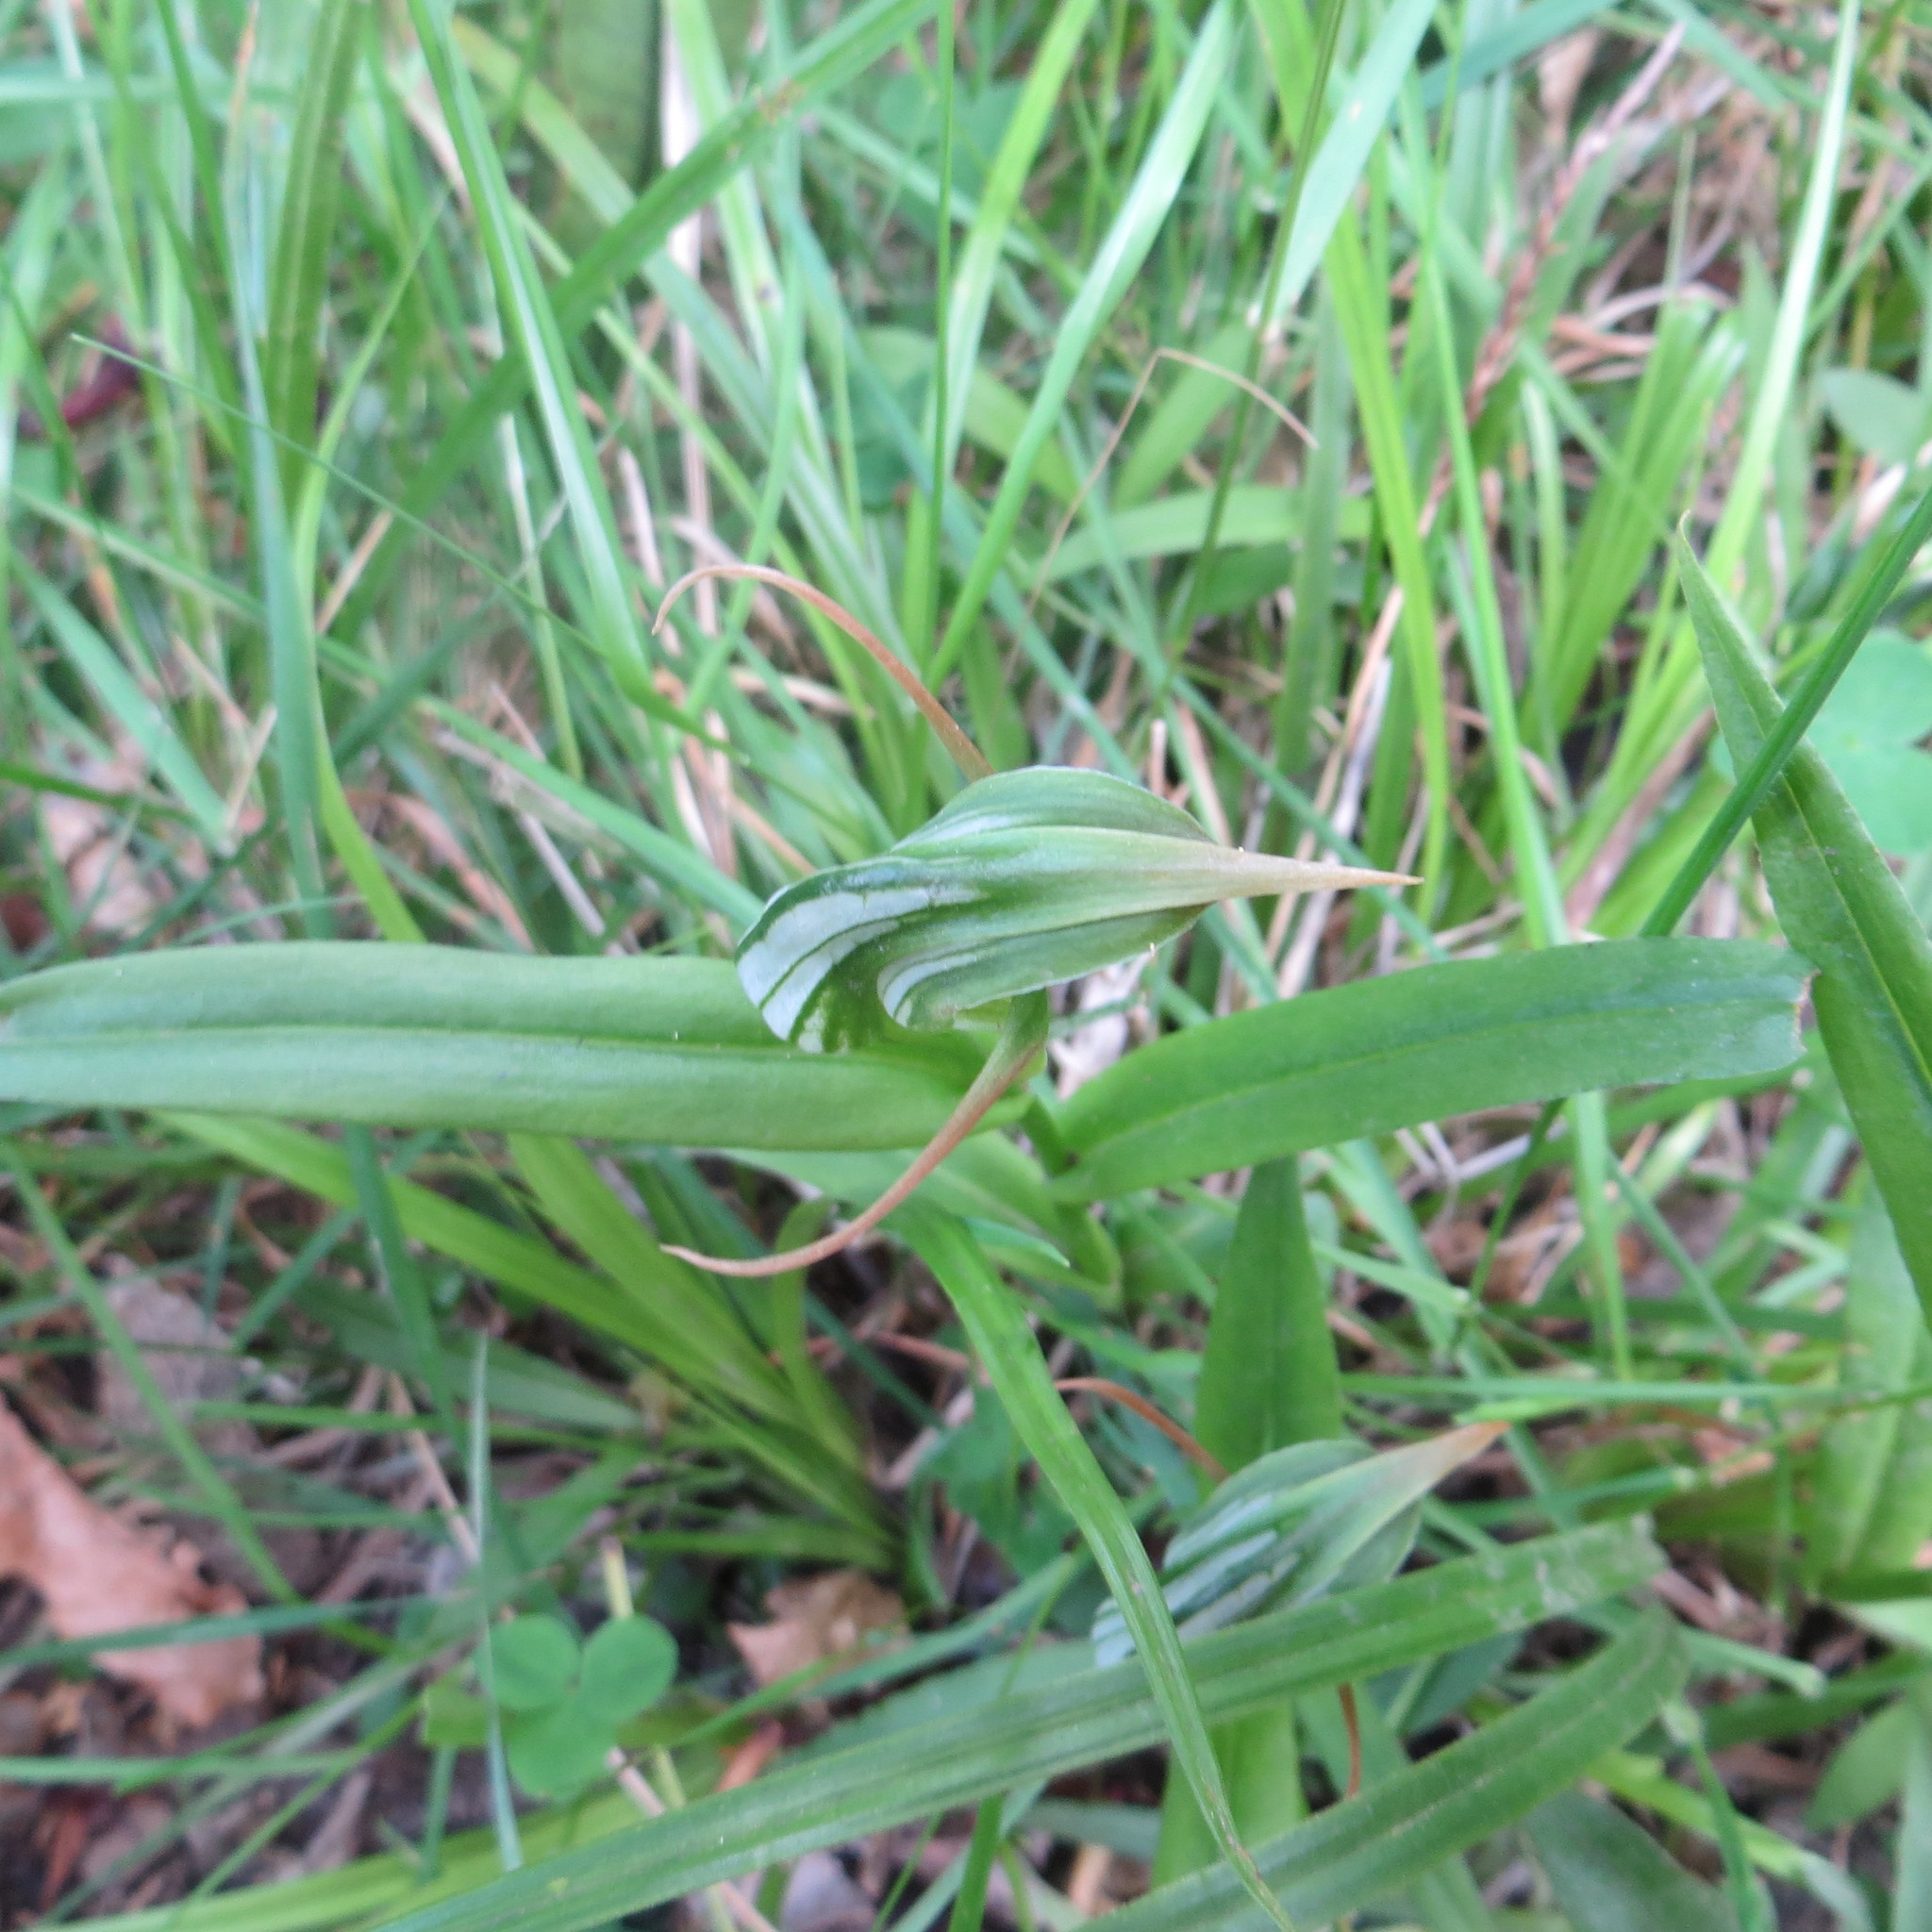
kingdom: Plantae
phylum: Tracheophyta
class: Liliopsida
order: Asparagales
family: Orchidaceae
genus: Pterostylis
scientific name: Pterostylis montana
